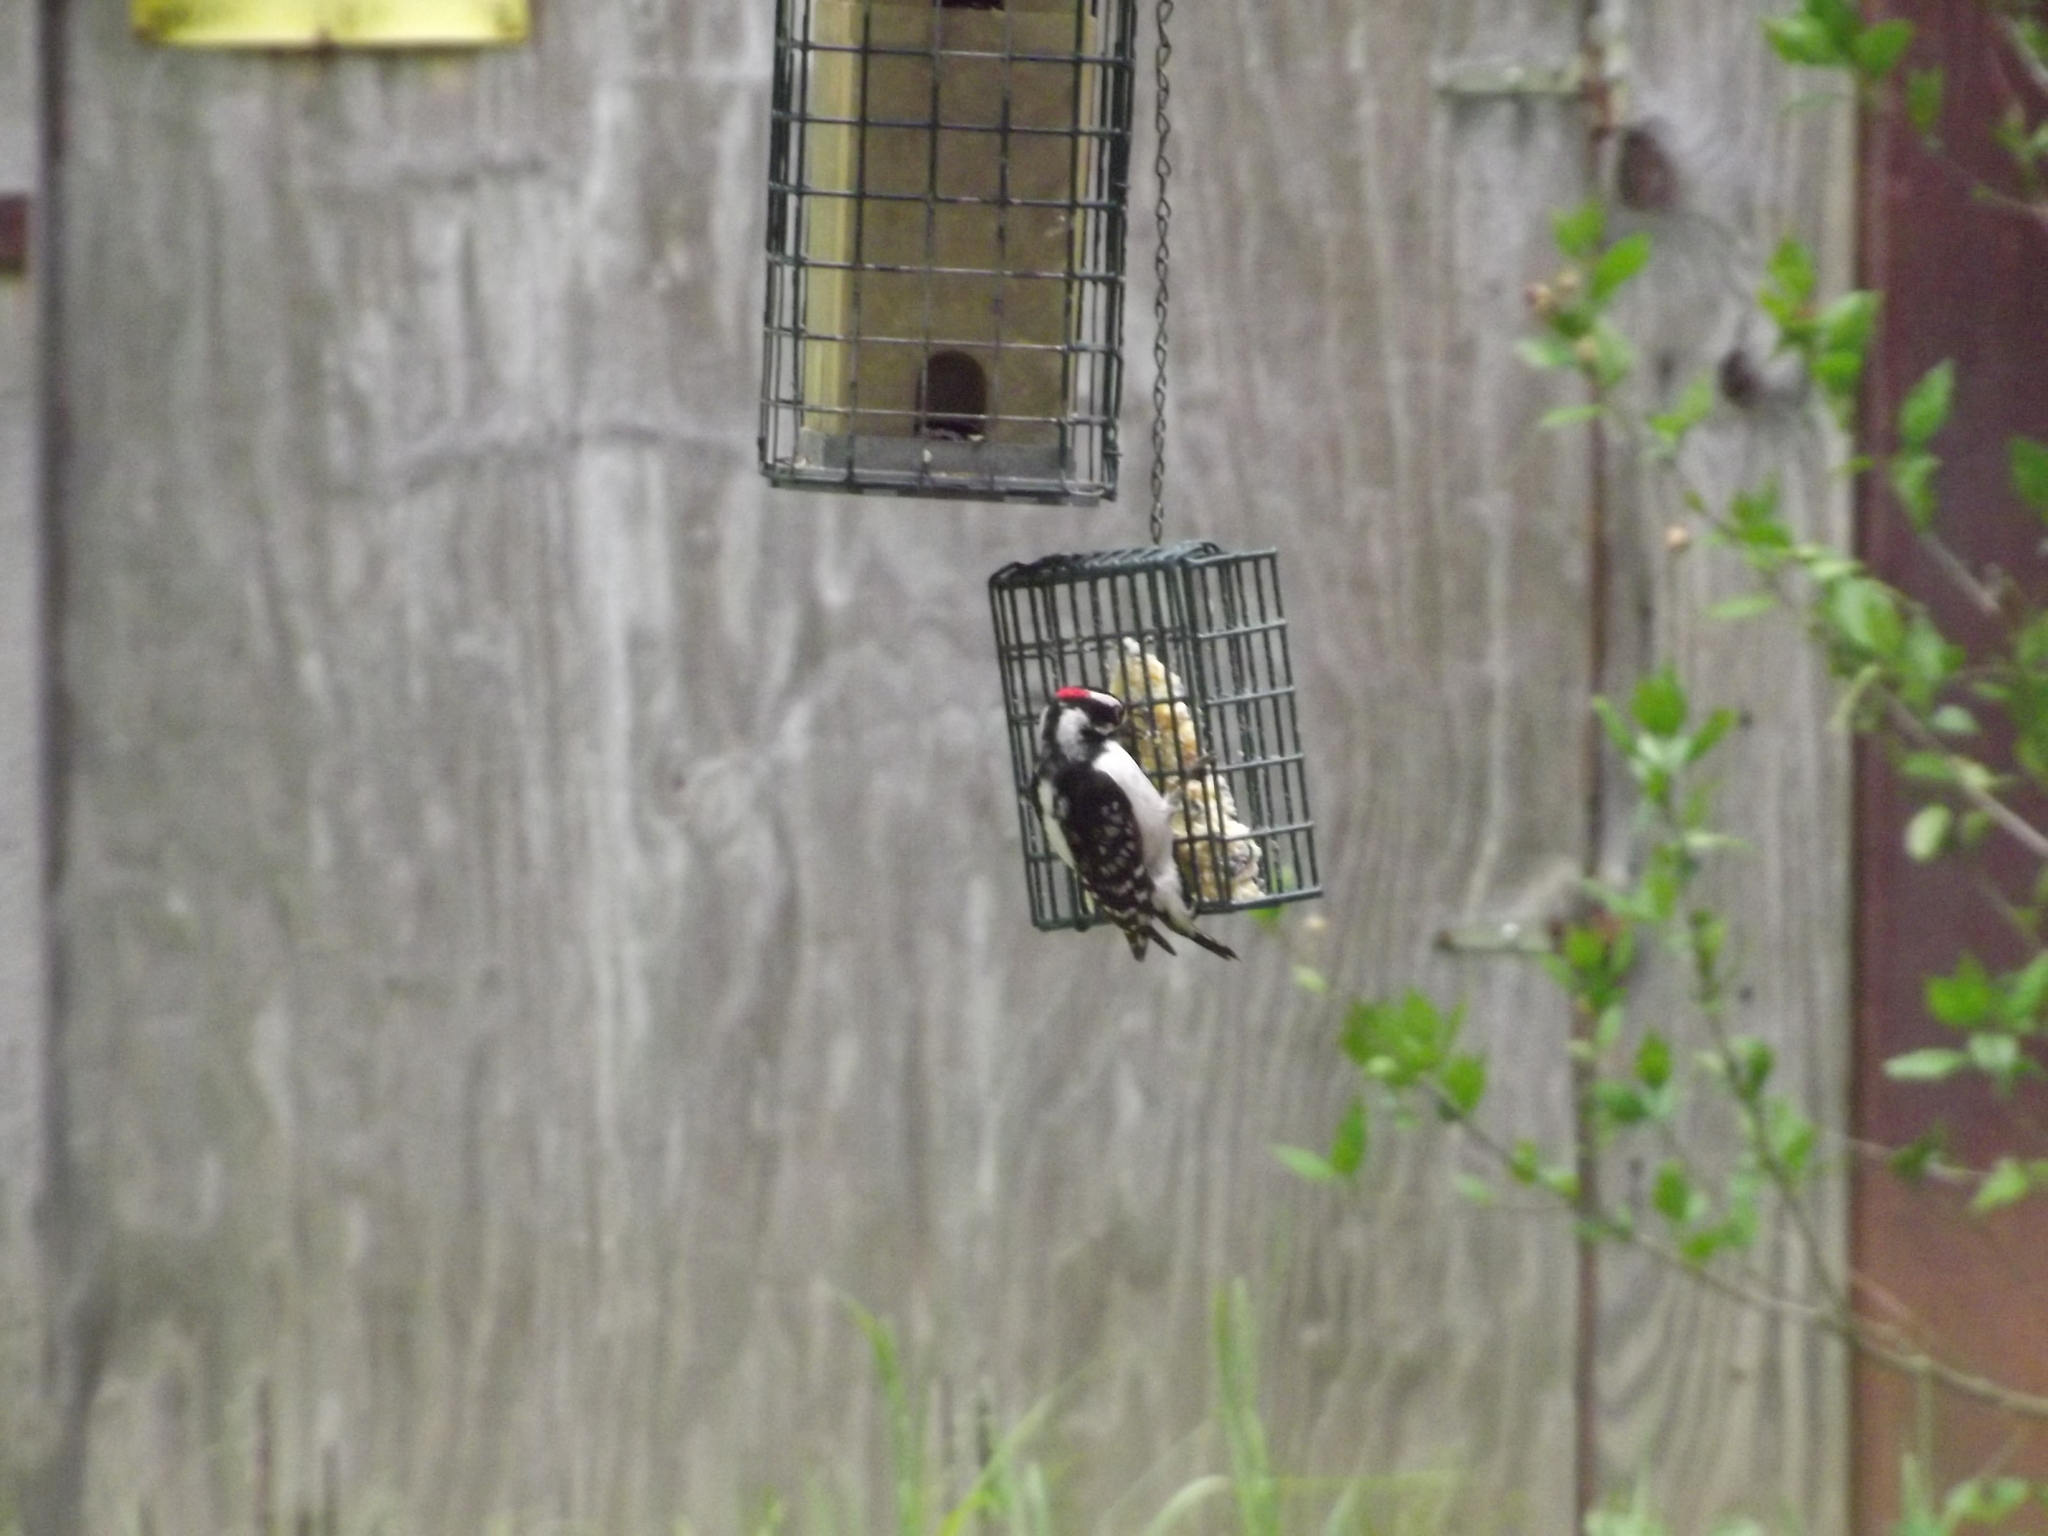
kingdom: Animalia
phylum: Chordata
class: Aves
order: Piciformes
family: Picidae
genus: Dryobates
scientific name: Dryobates pubescens
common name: Downy woodpecker
